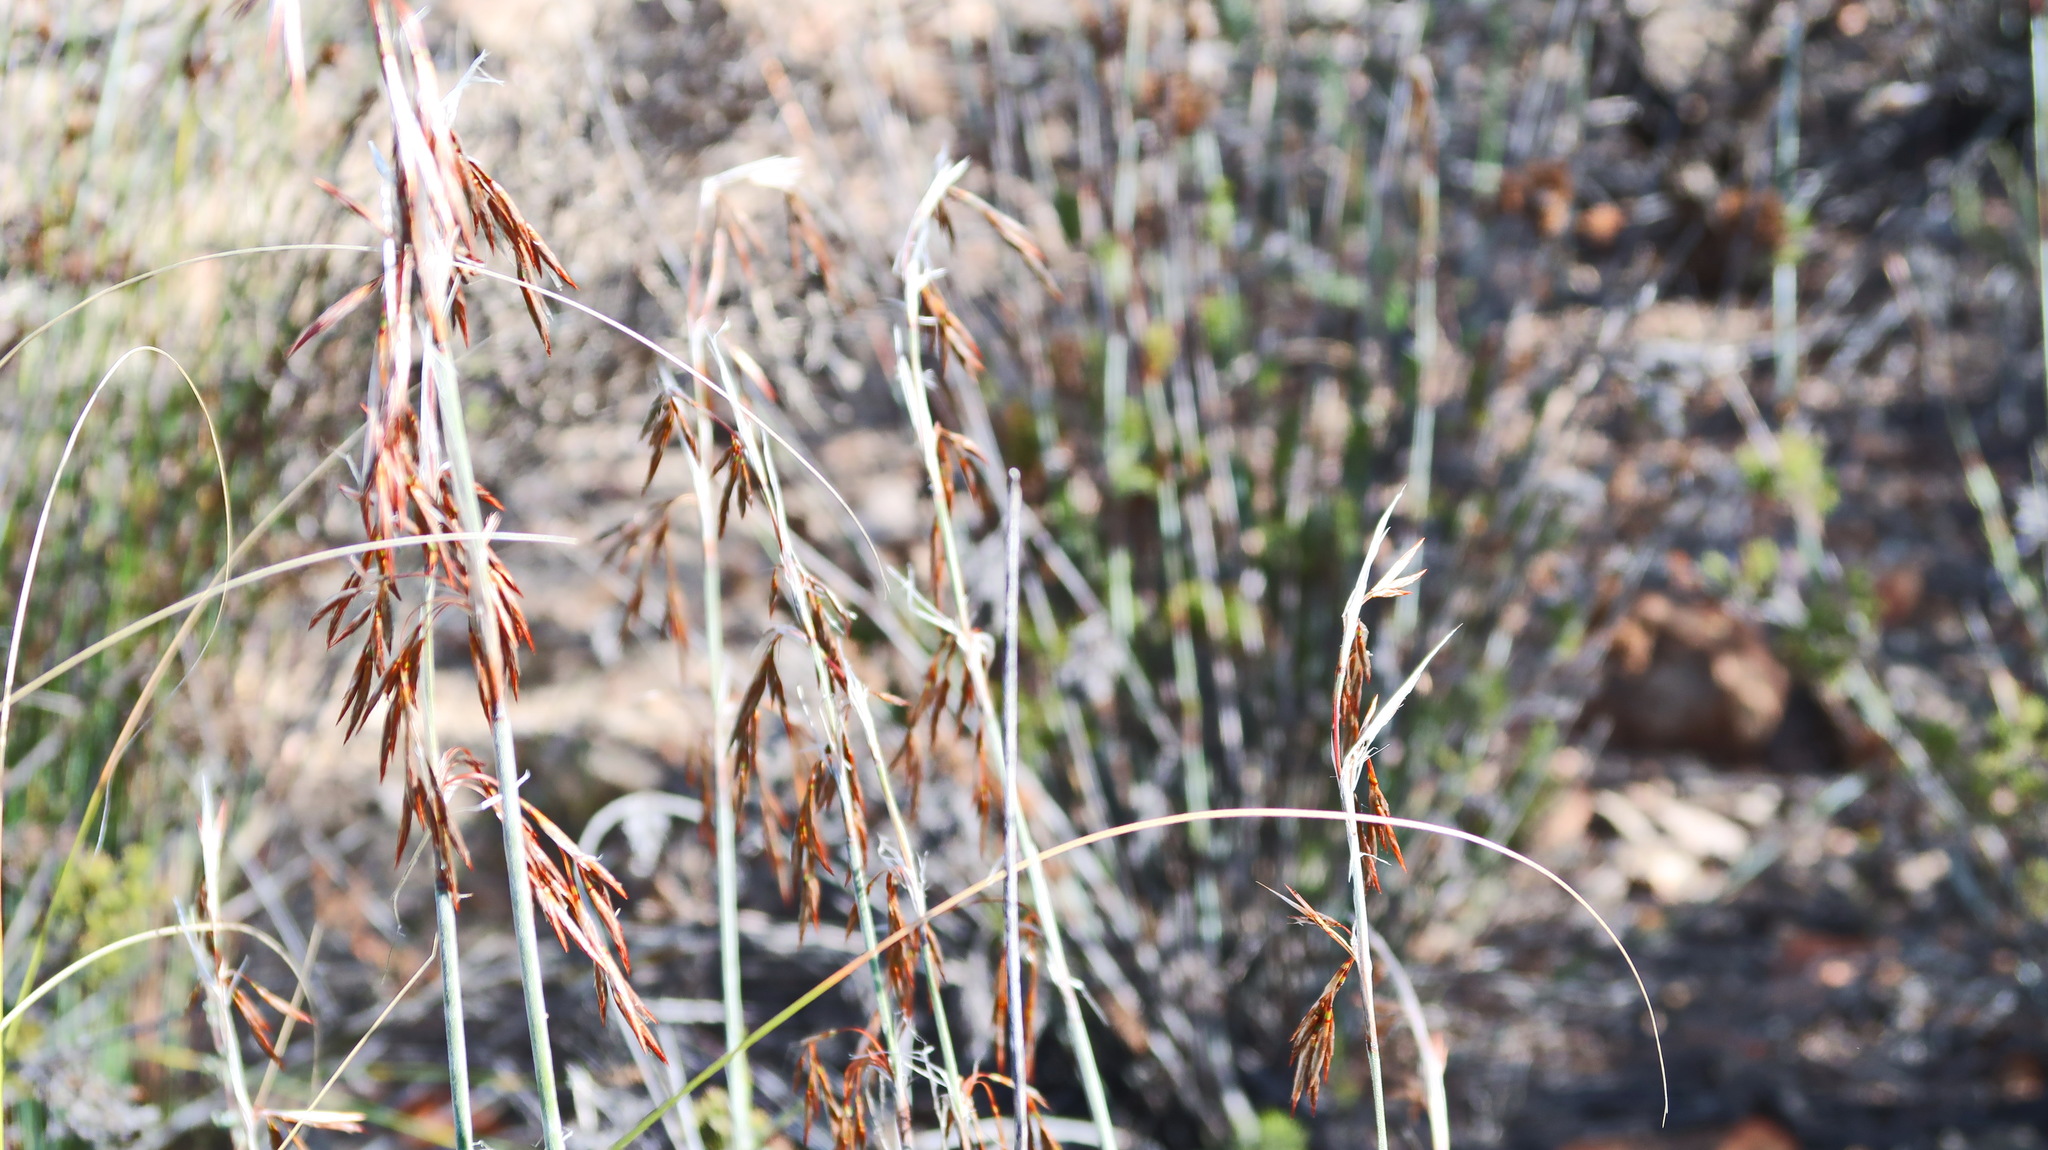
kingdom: Plantae
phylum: Tracheophyta
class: Liliopsida
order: Poales
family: Restionaceae
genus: Thamnochortus
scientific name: Thamnochortus rigidus
